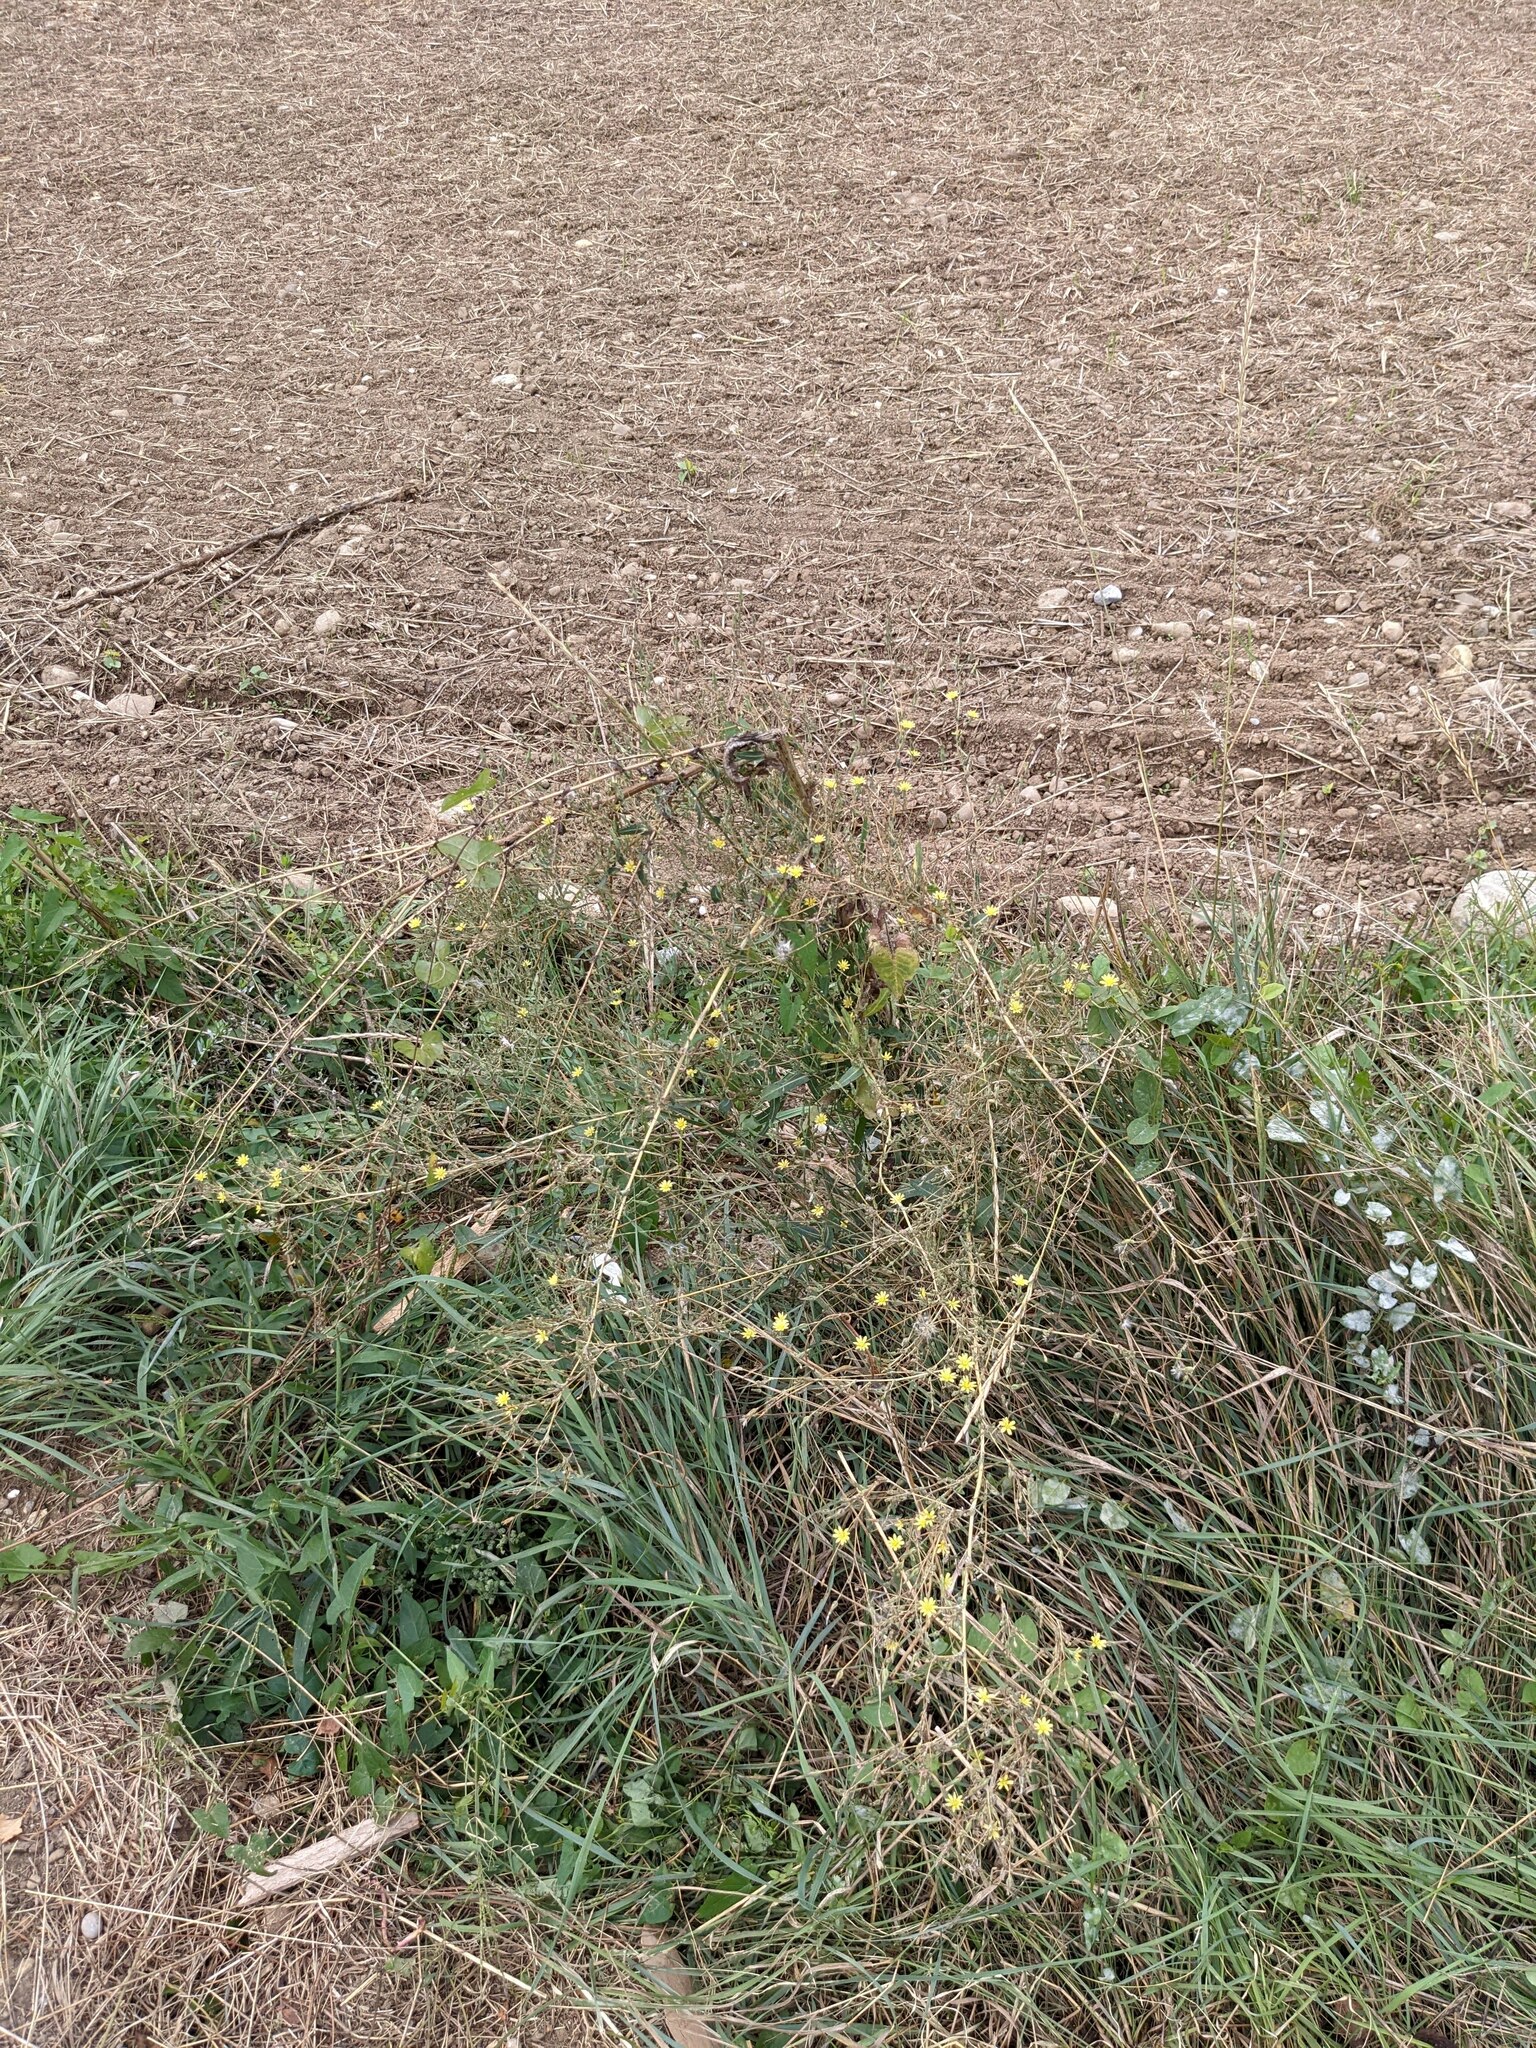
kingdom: Plantae
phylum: Tracheophyta
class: Magnoliopsida
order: Asterales
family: Asteraceae
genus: Lactuca
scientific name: Lactuca serriola
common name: Prickly lettuce
